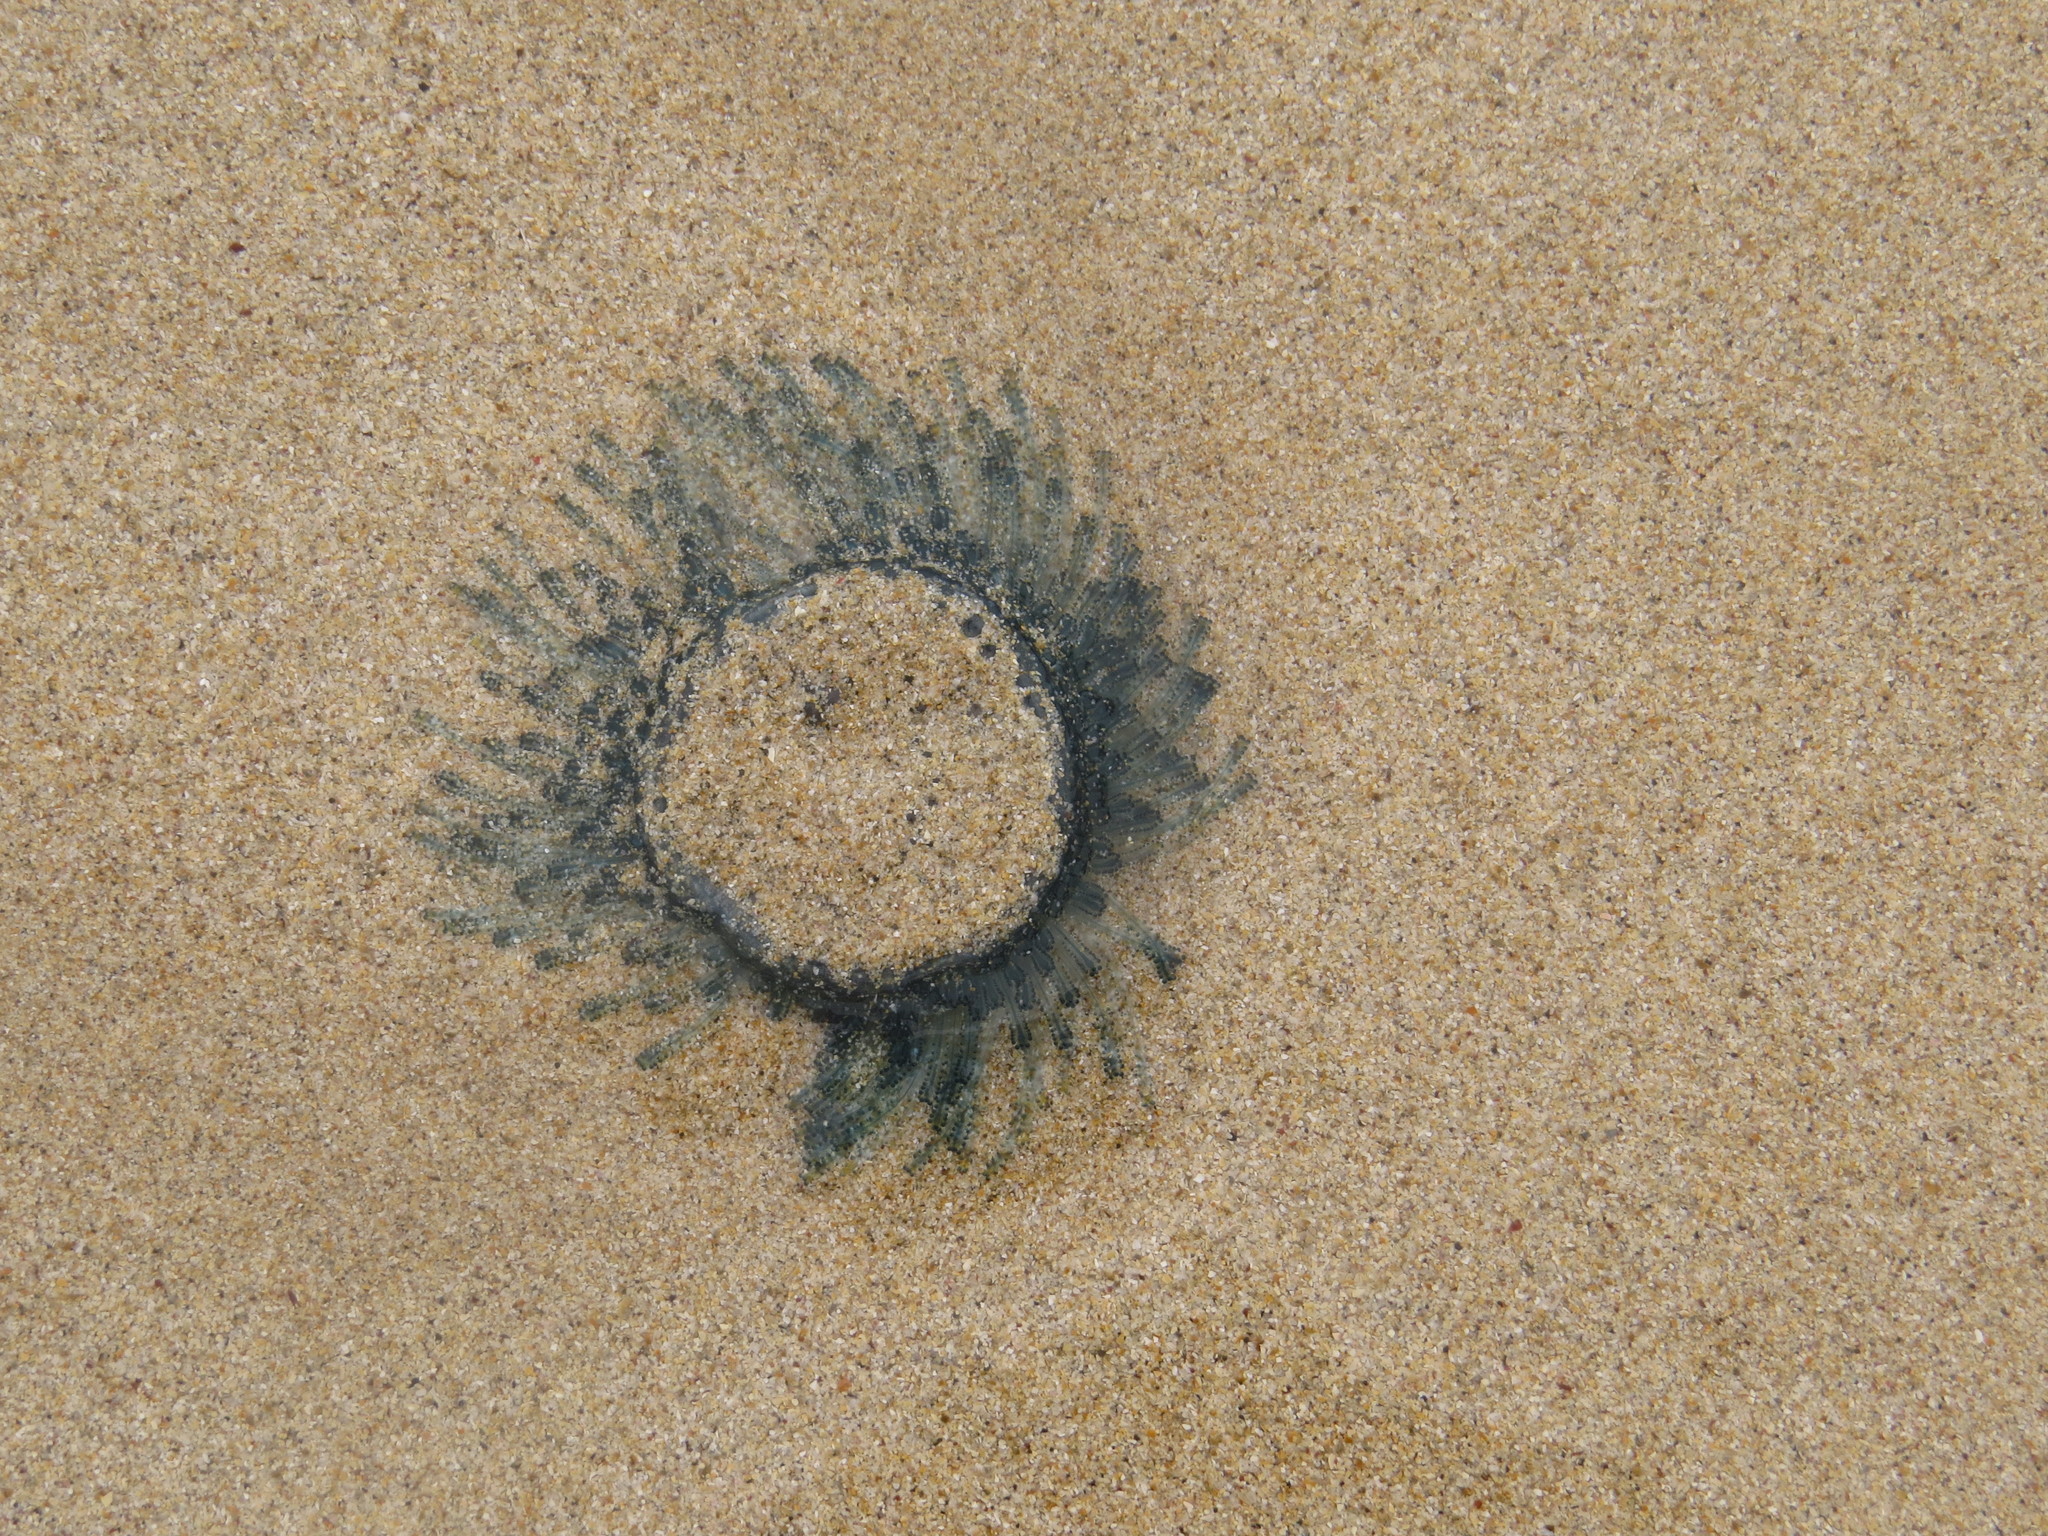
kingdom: Animalia
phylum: Cnidaria
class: Hydrozoa
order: Anthoathecata
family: Porpitidae
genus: Porpita
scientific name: Porpita porpita
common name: Blue button
